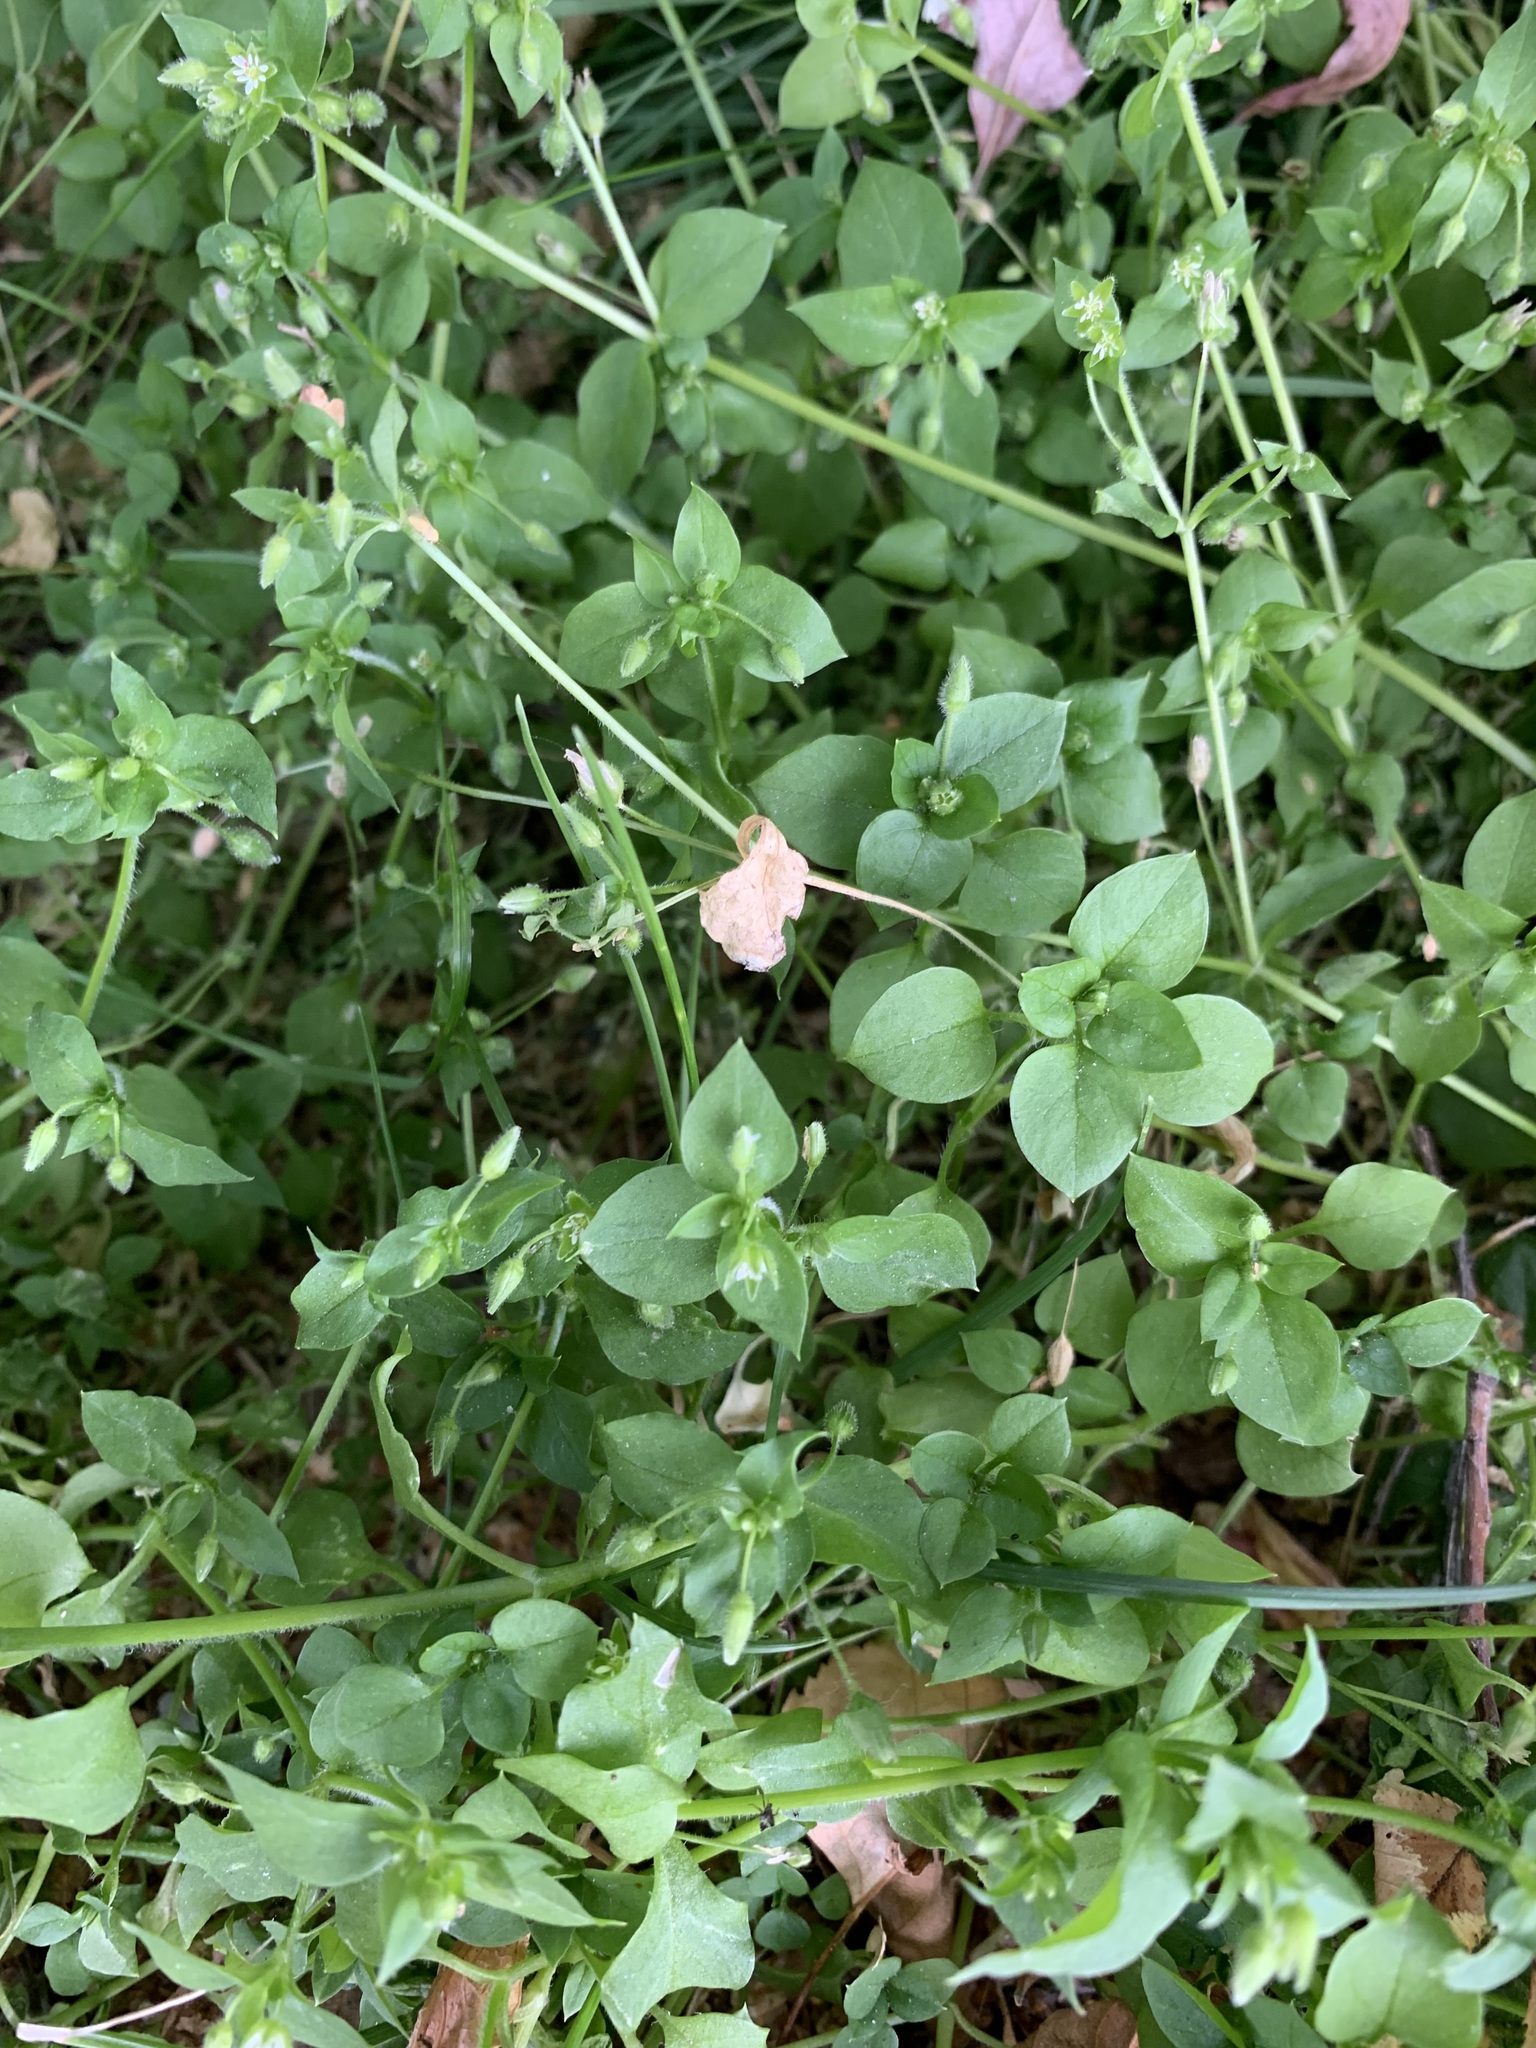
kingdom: Plantae
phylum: Tracheophyta
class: Magnoliopsida
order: Caryophyllales
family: Caryophyllaceae
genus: Stellaria
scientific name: Stellaria media
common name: Common chickweed
